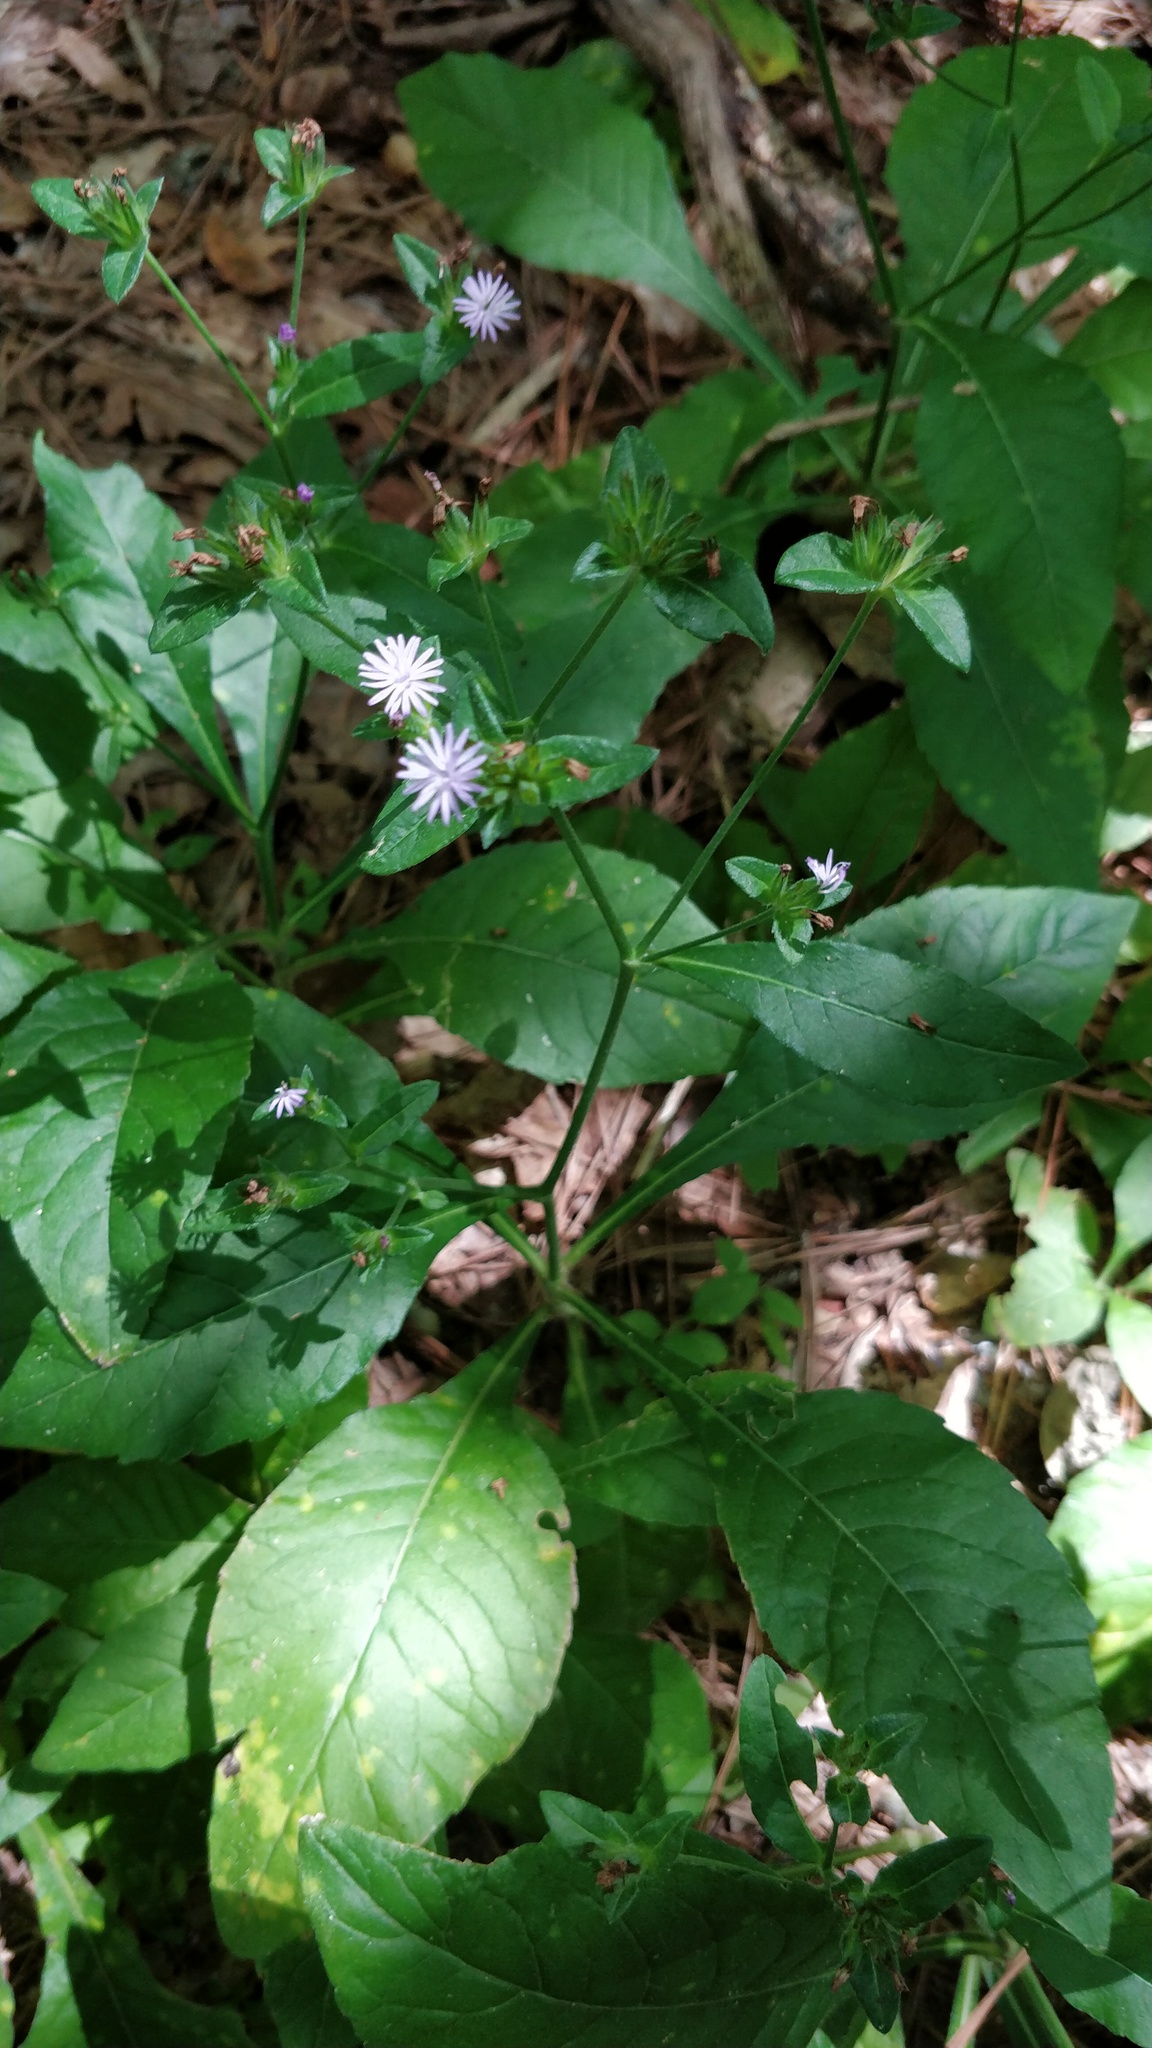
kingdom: Plantae
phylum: Tracheophyta
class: Magnoliopsida
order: Asterales
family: Asteraceae
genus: Elephantopus
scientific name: Elephantopus carolinianus
